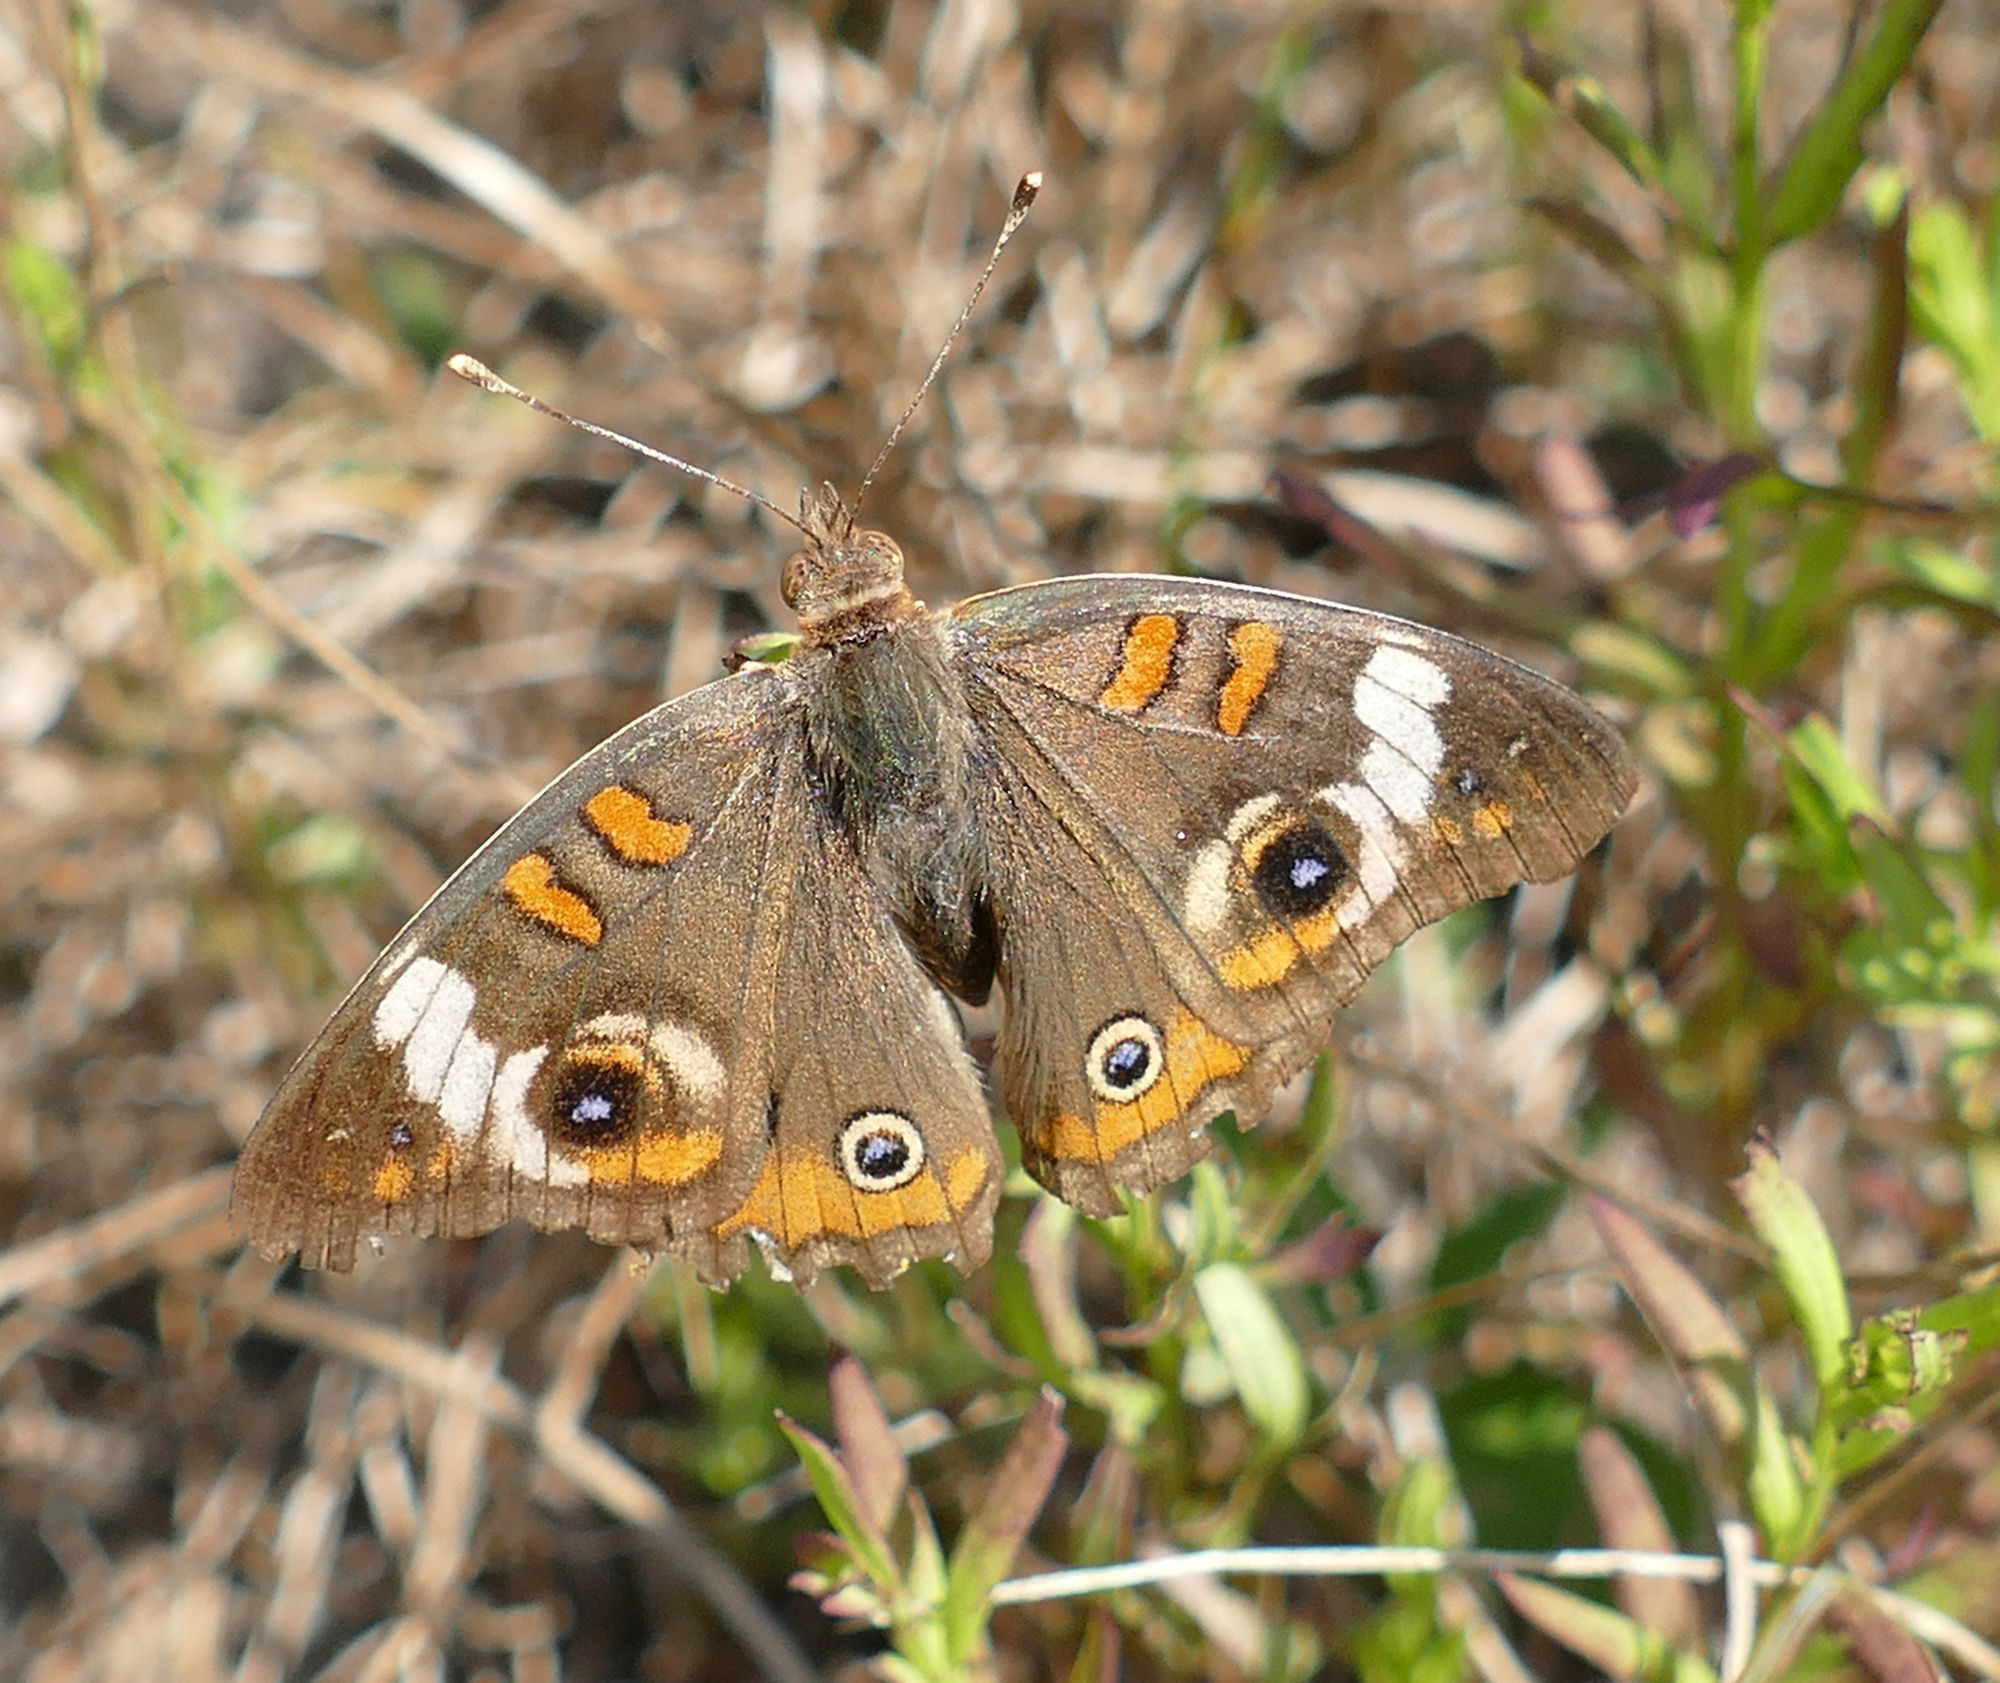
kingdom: Animalia
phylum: Arthropoda
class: Insecta
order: Lepidoptera
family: Nymphalidae
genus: Junonia
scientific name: Junonia coenia
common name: Common buckeye
